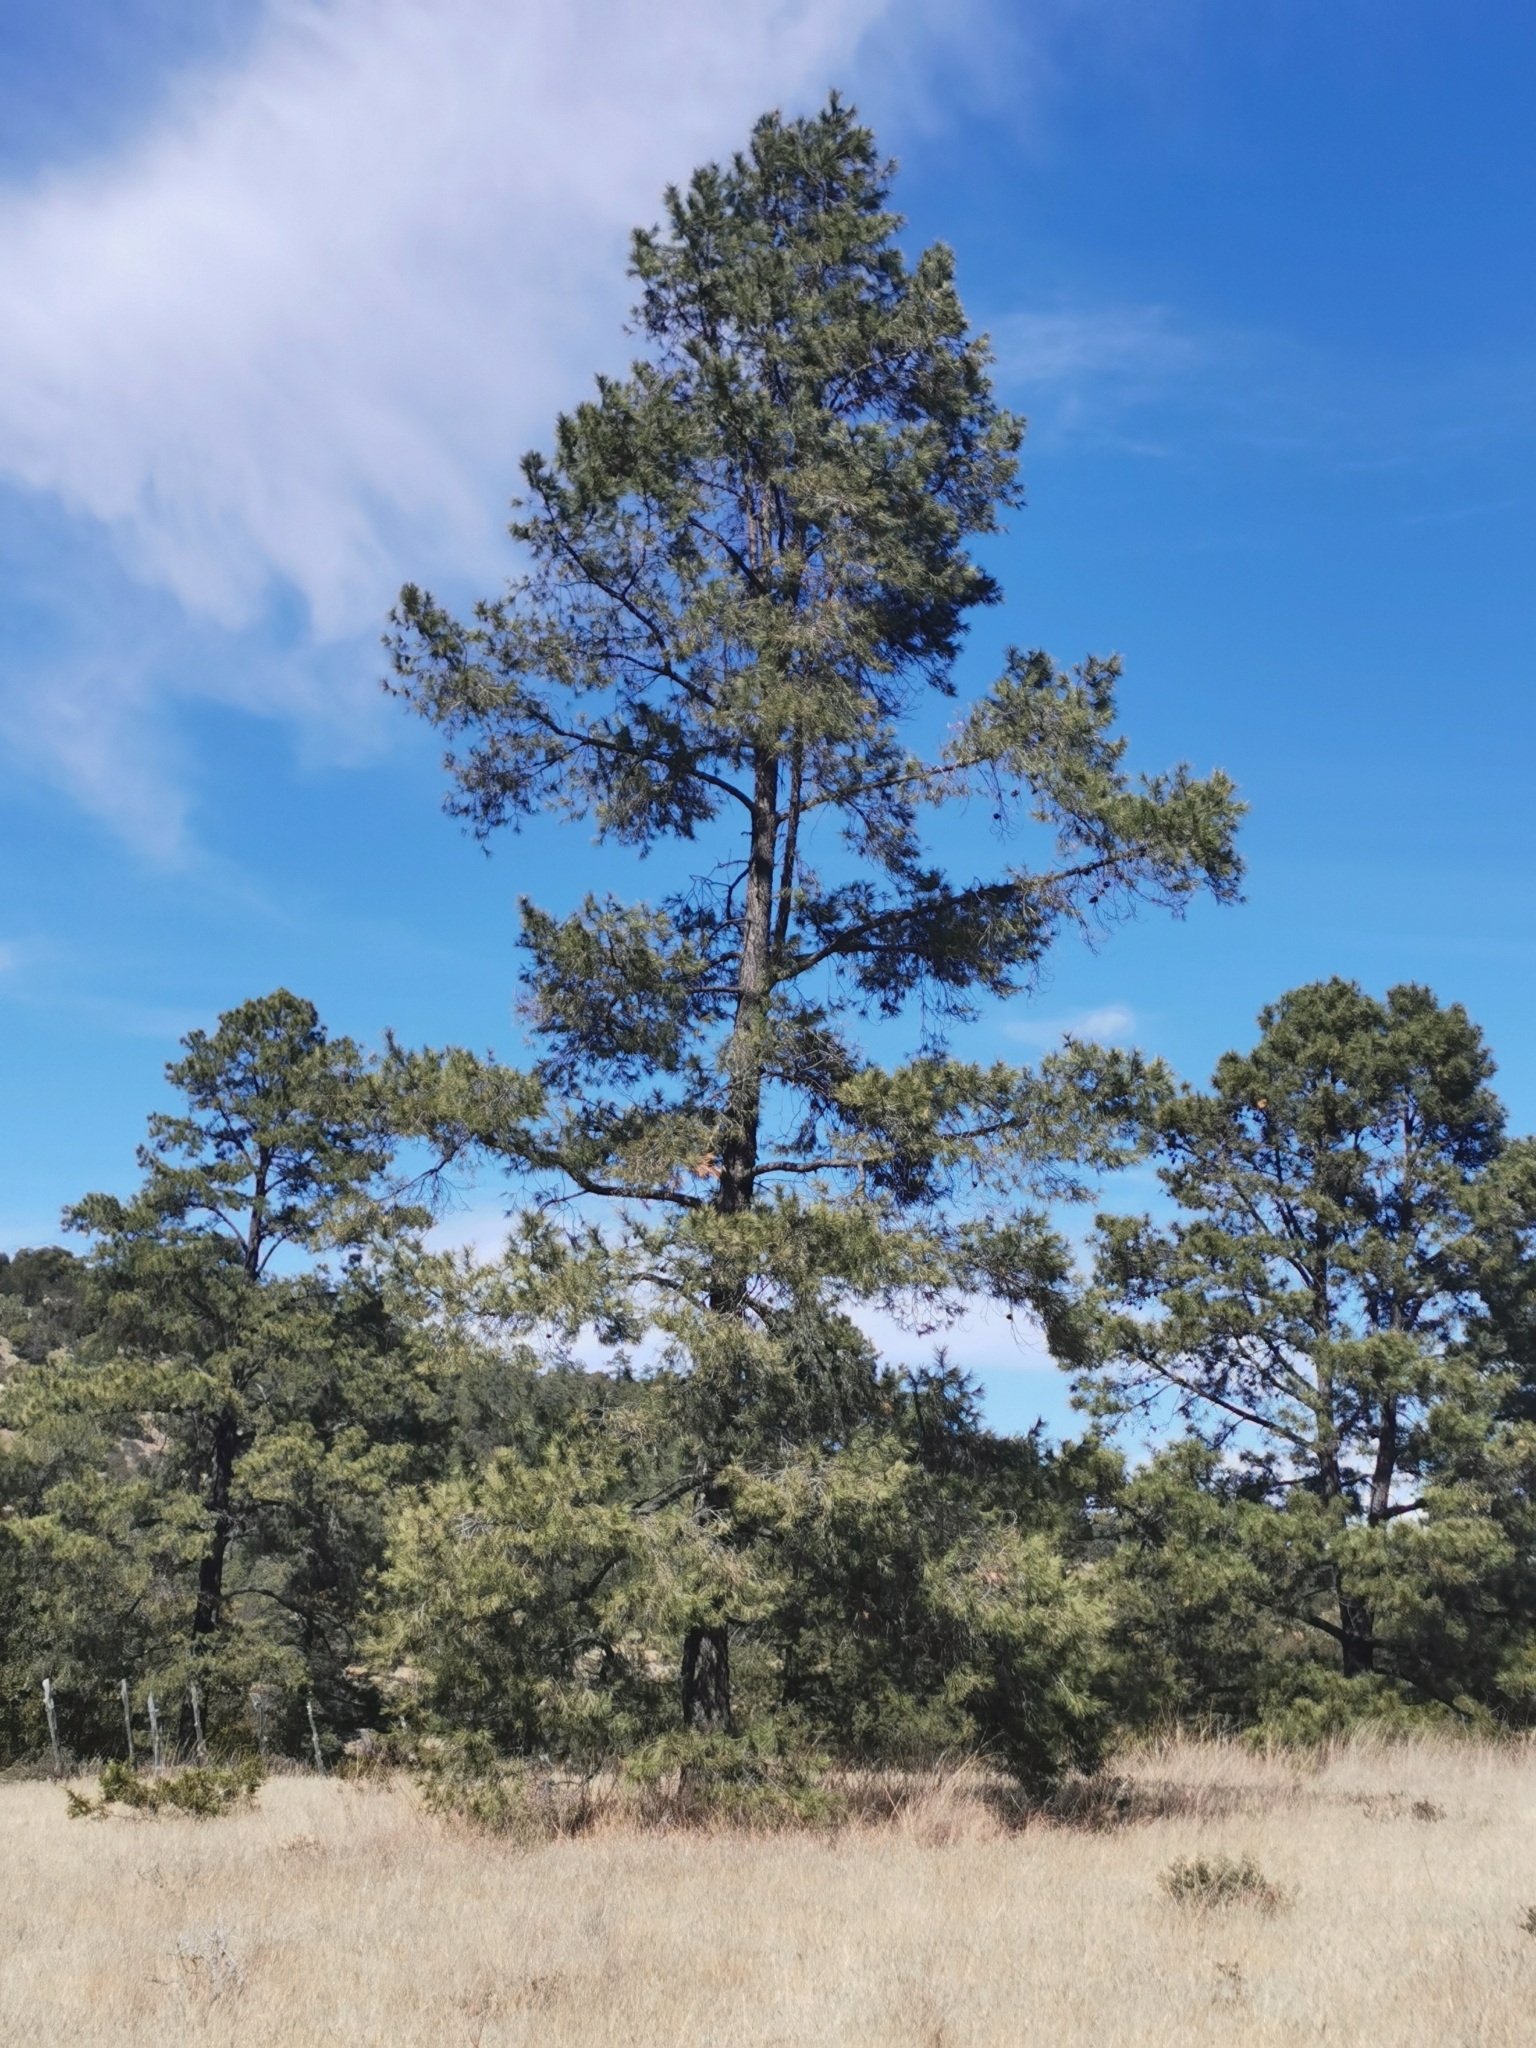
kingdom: Plantae
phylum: Tracheophyta
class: Pinopsida
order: Pinales
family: Pinaceae
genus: Pinus
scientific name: Pinus leiophylla
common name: Chihuahua pine
